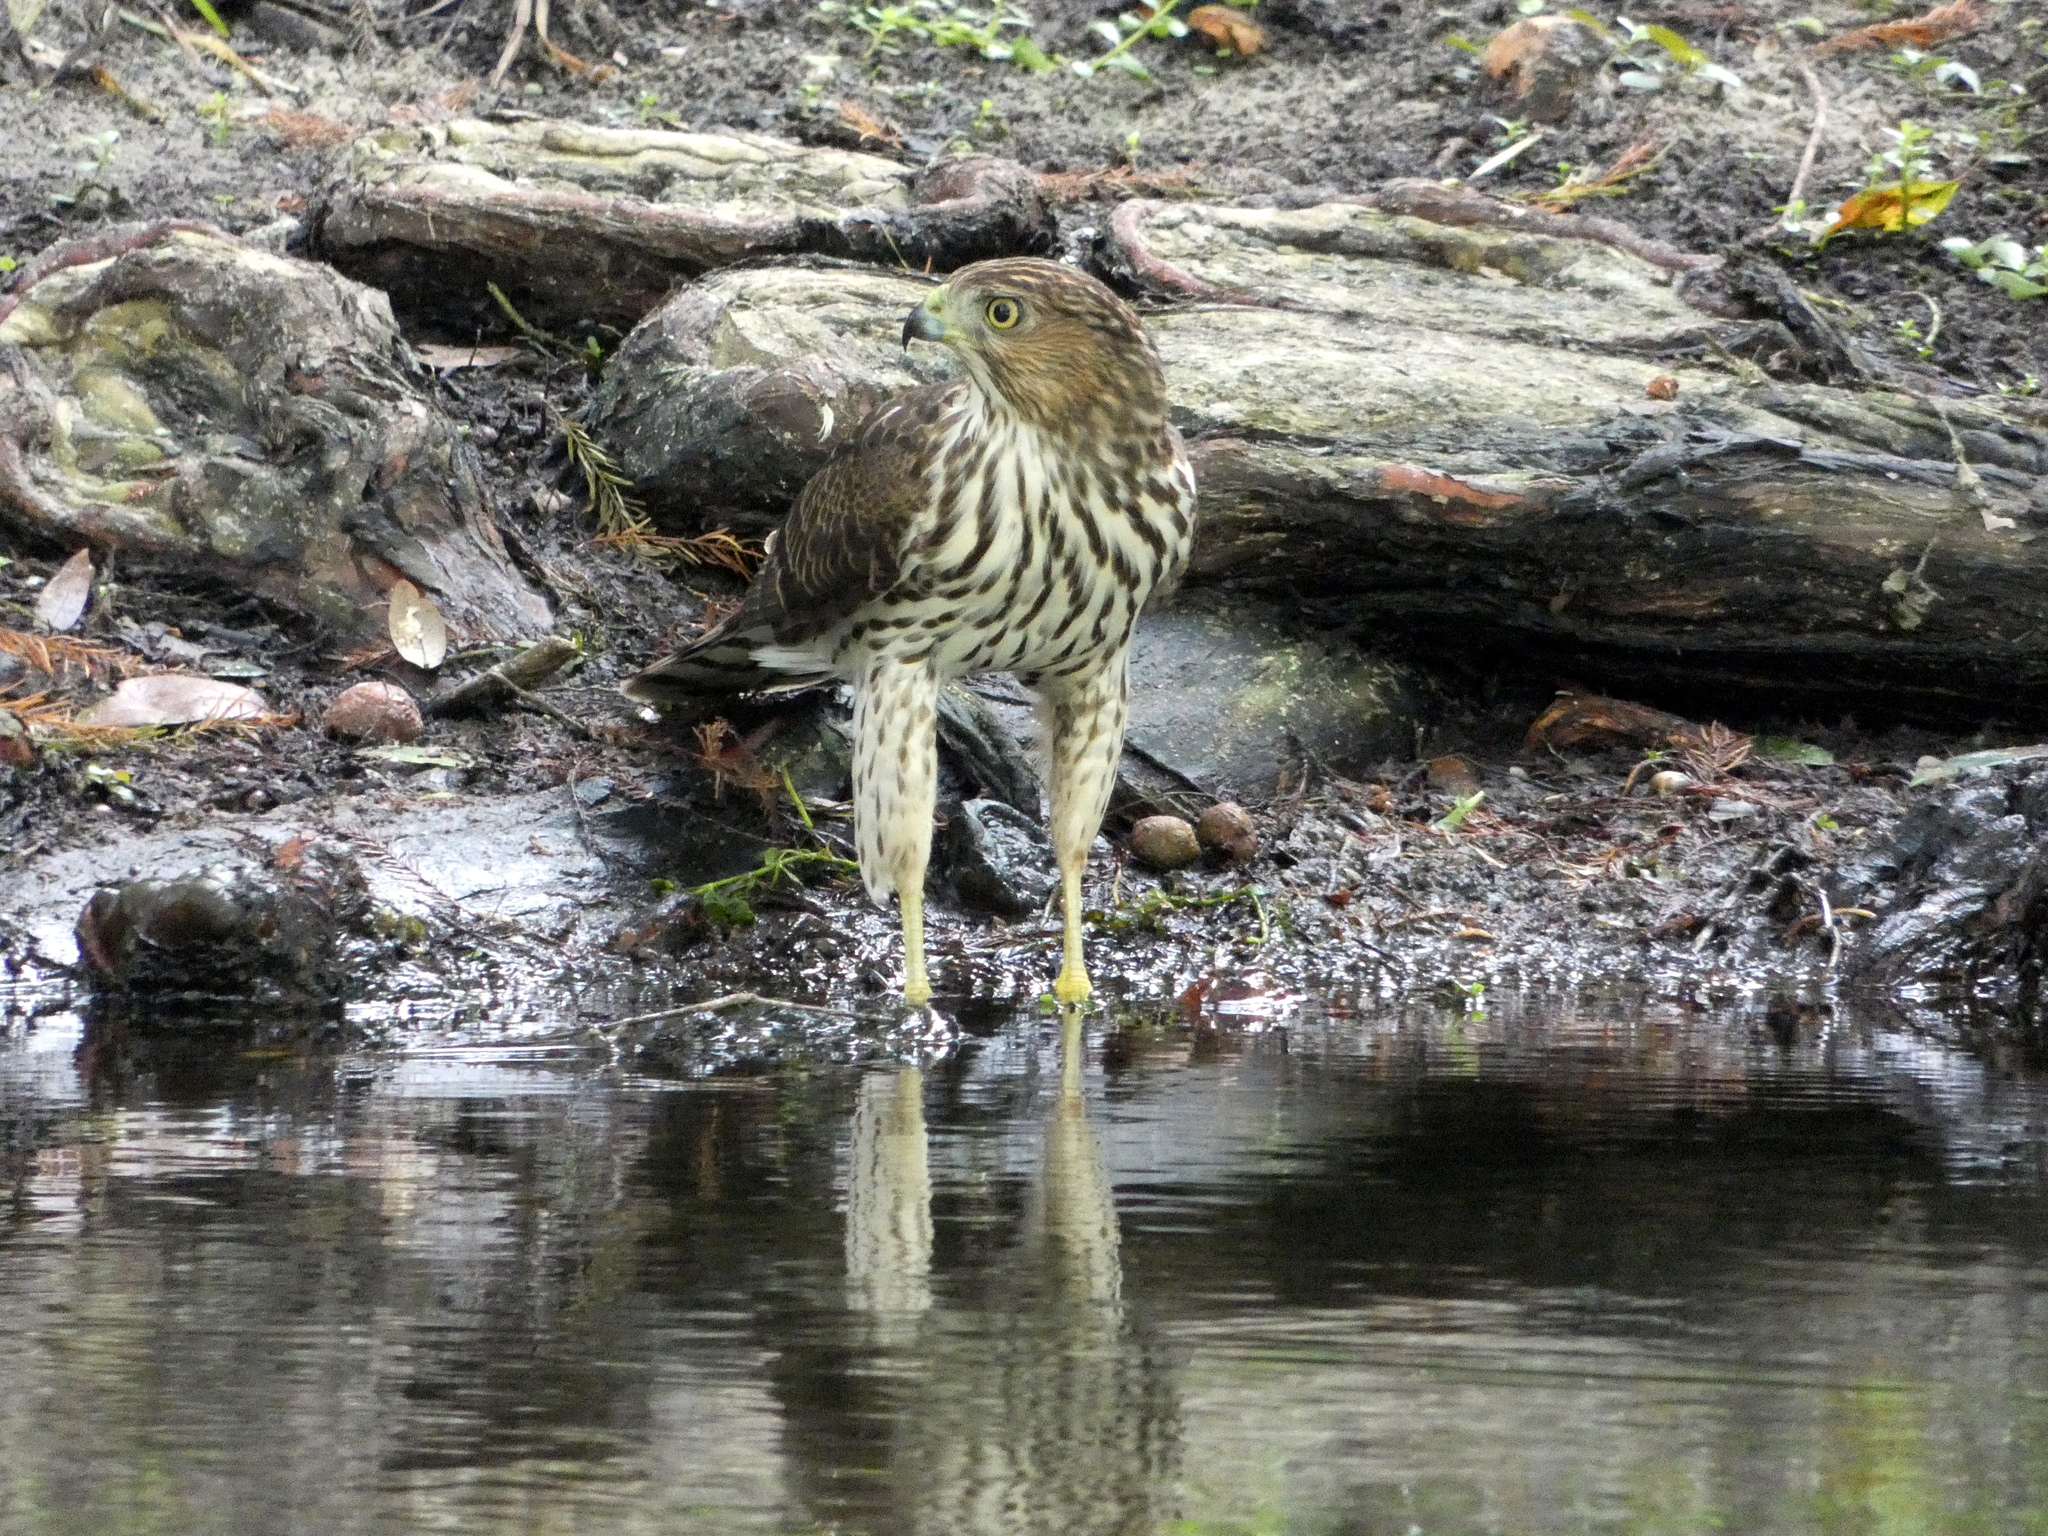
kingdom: Animalia
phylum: Chordata
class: Aves
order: Accipitriformes
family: Accipitridae
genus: Accipiter
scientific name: Accipiter cooperii
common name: Cooper's hawk
